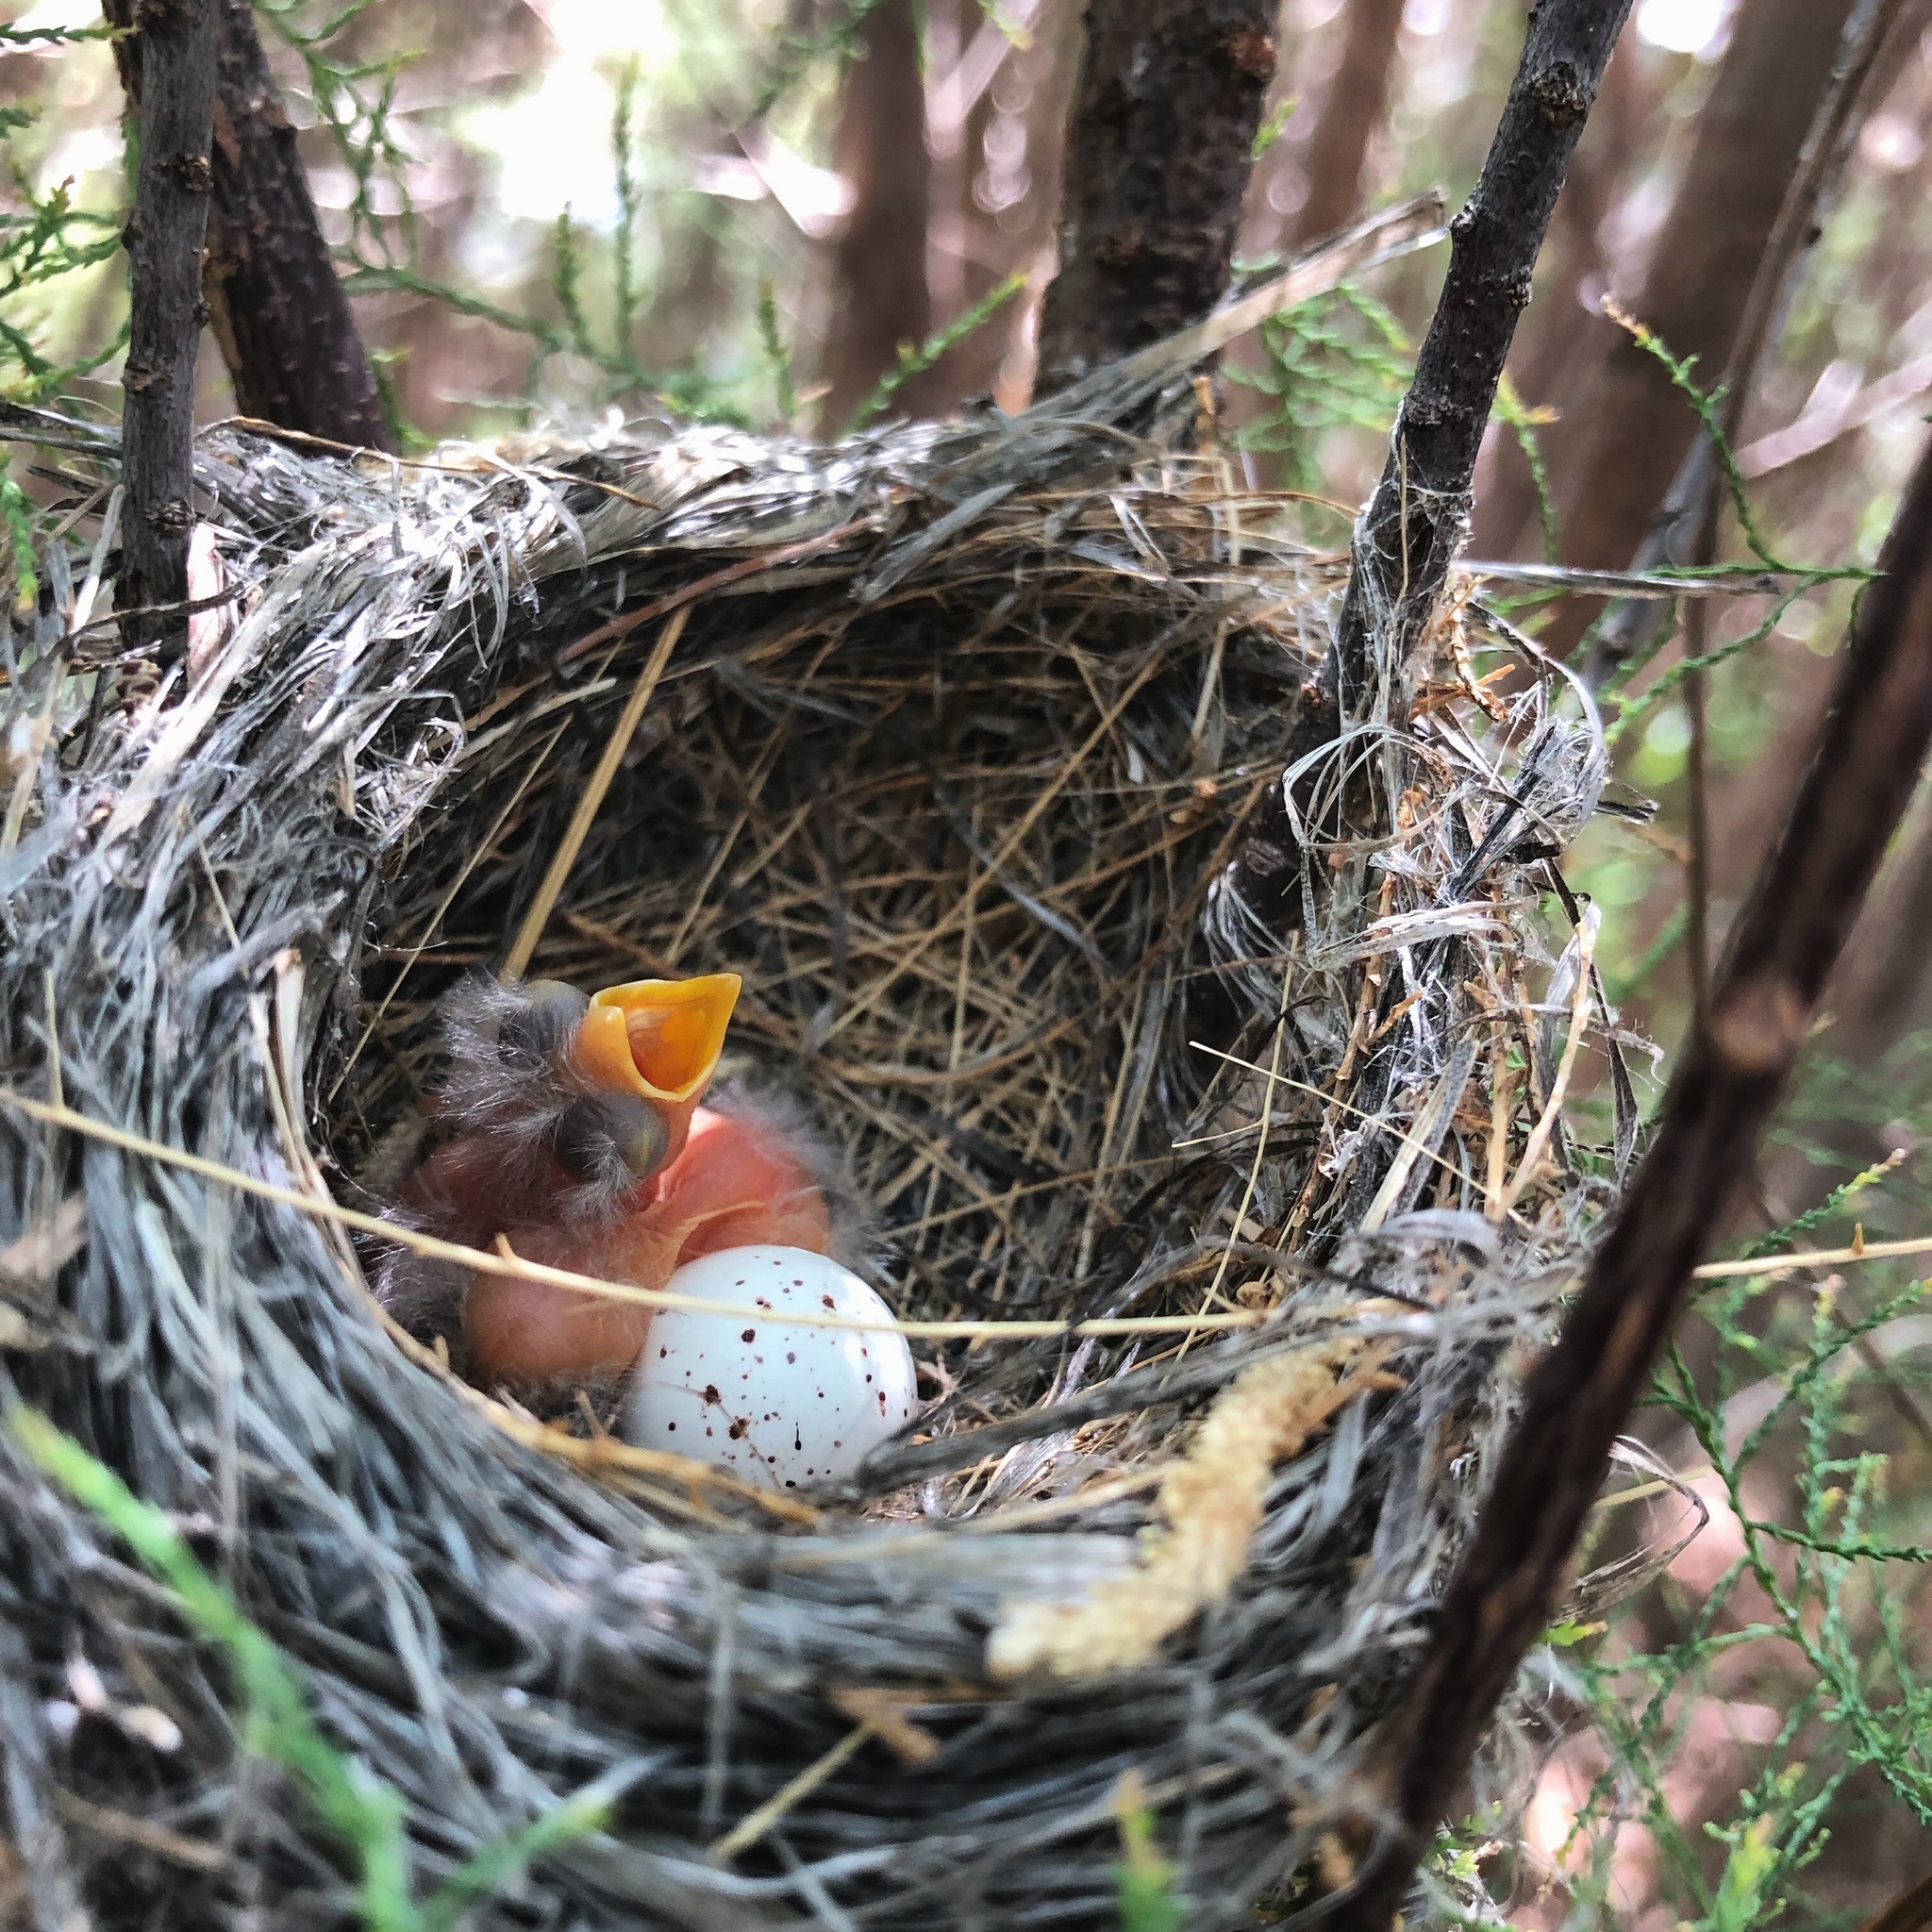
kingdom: Animalia
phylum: Chordata
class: Aves
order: Passeriformes
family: Tyrannidae
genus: Empidonax
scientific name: Empidonax traillii
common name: Willow flycatcher
